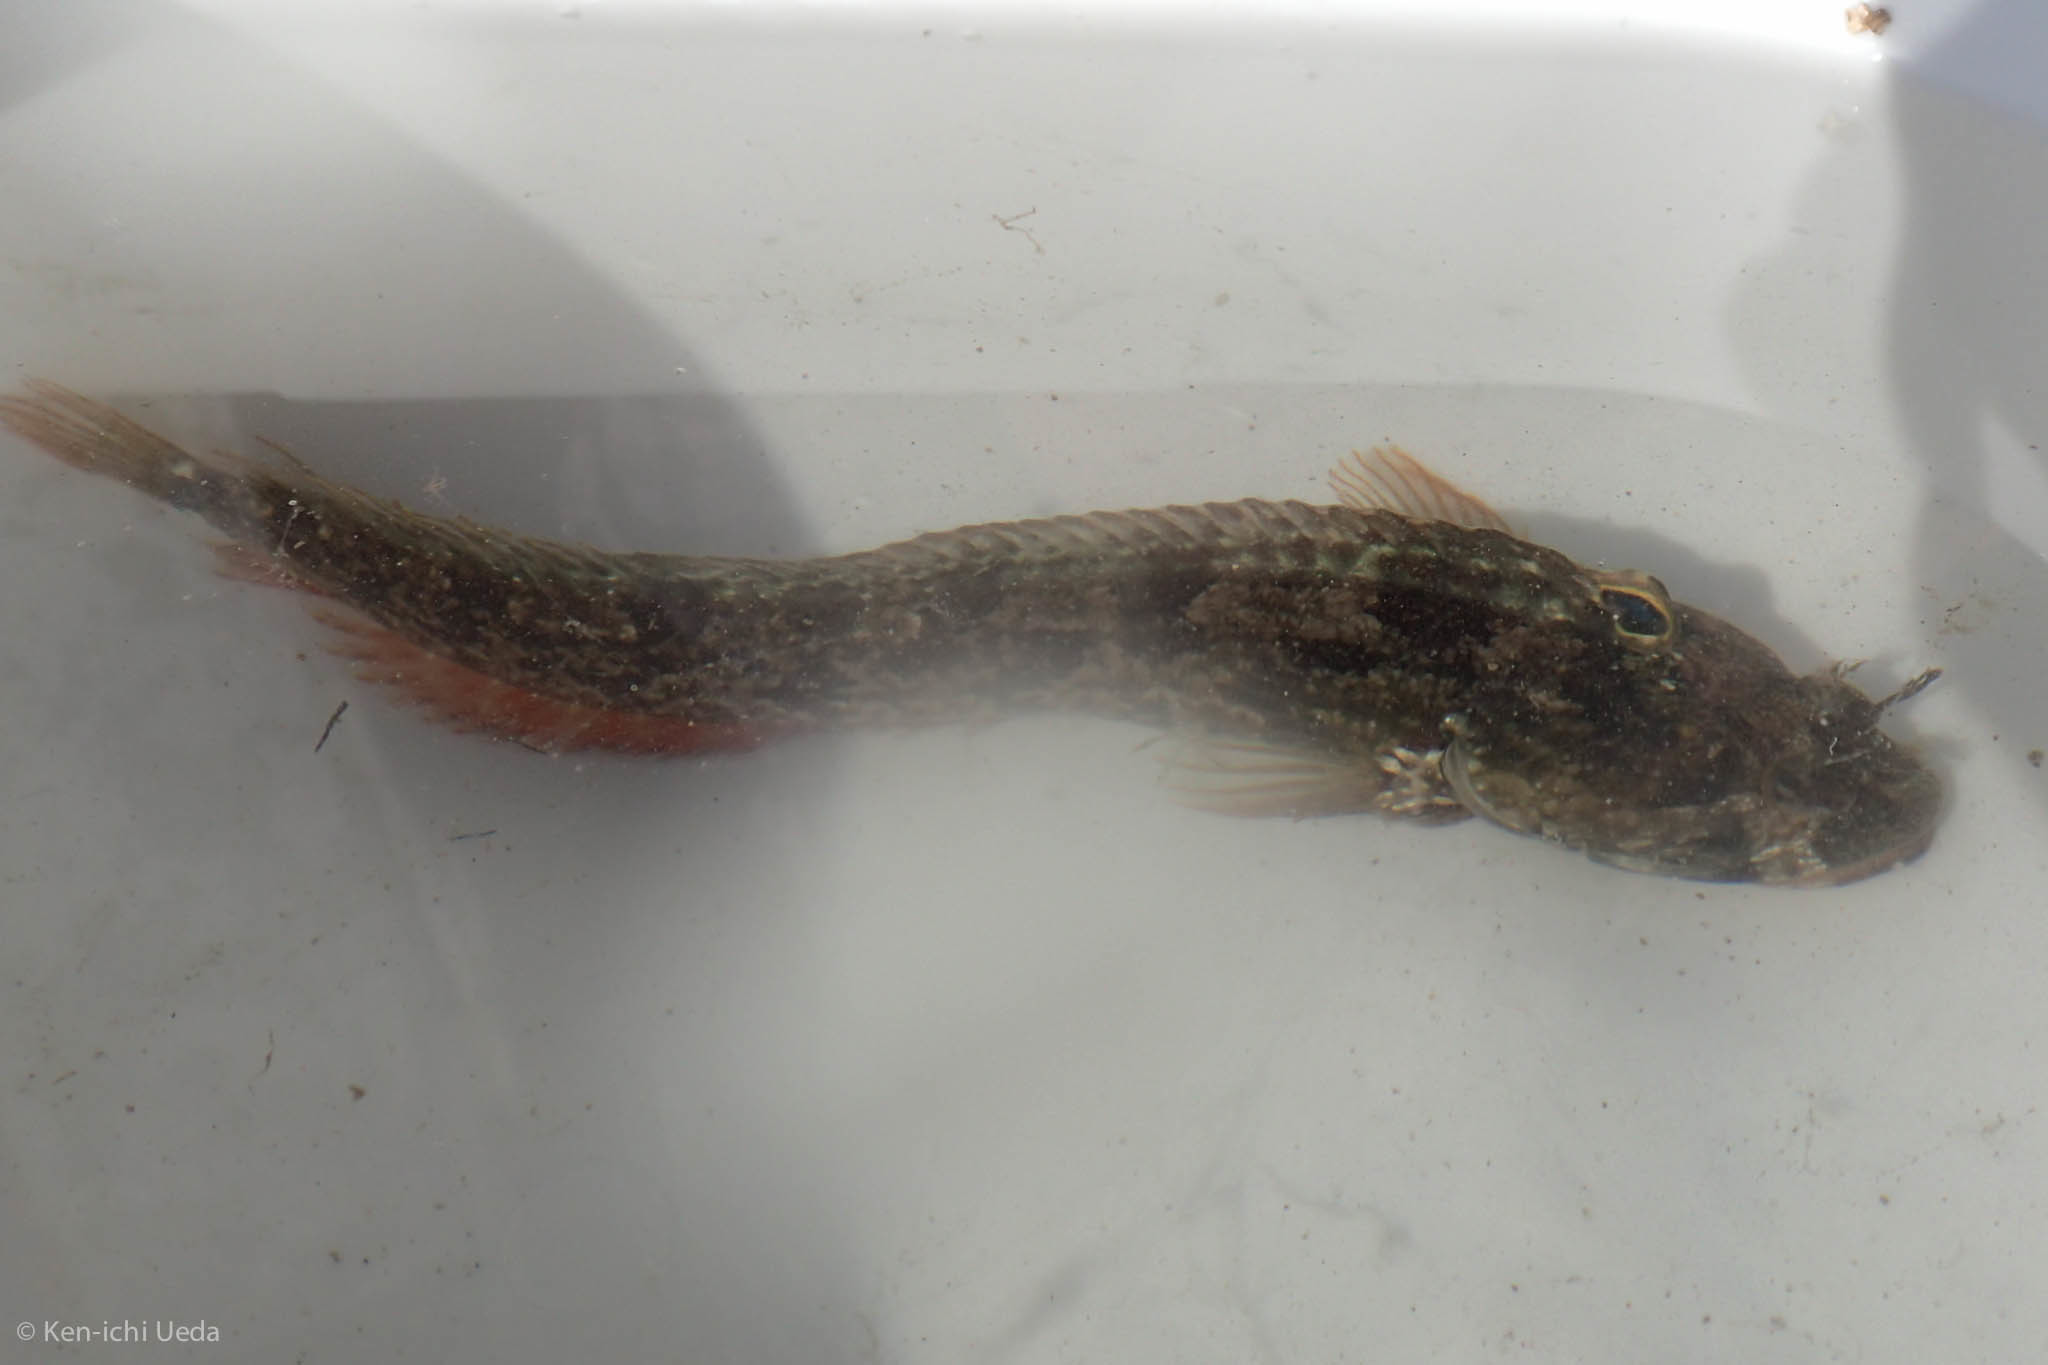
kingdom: Animalia
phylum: Chordata
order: Perciformes
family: Chaenopsidae
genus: Neoclinus
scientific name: Neoclinus uninotatus
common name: One-spot fringehead
